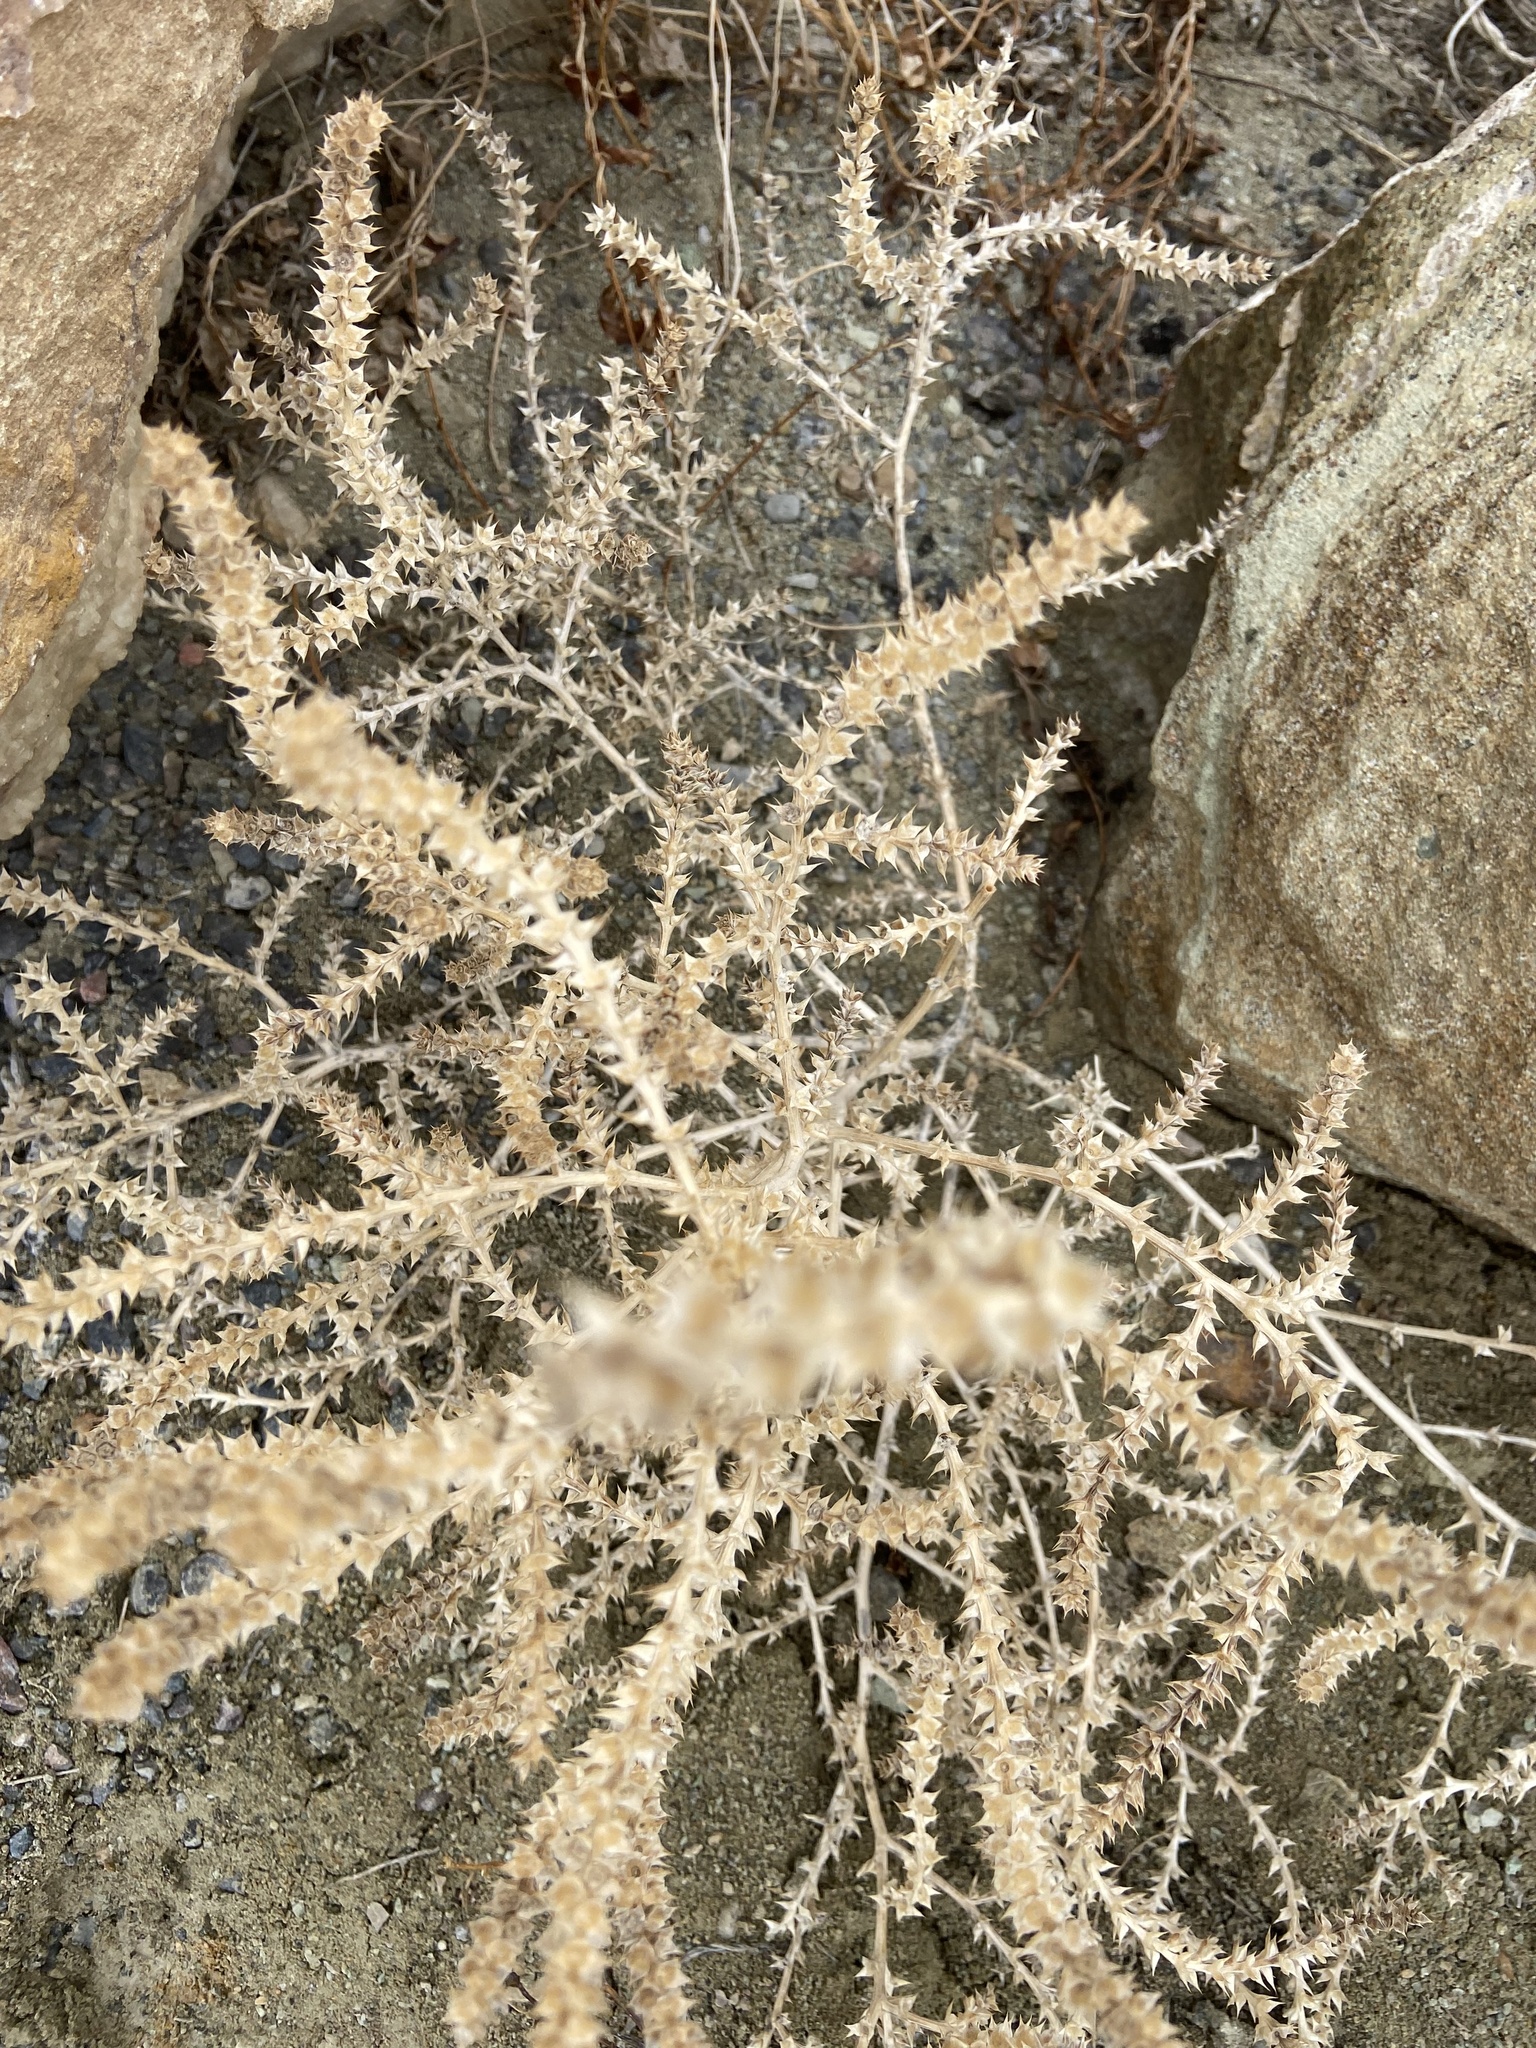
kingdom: Plantae
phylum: Tracheophyta
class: Magnoliopsida
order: Caryophyllales
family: Amaranthaceae
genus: Bassia
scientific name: Bassia scoparia
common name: Belvedere
